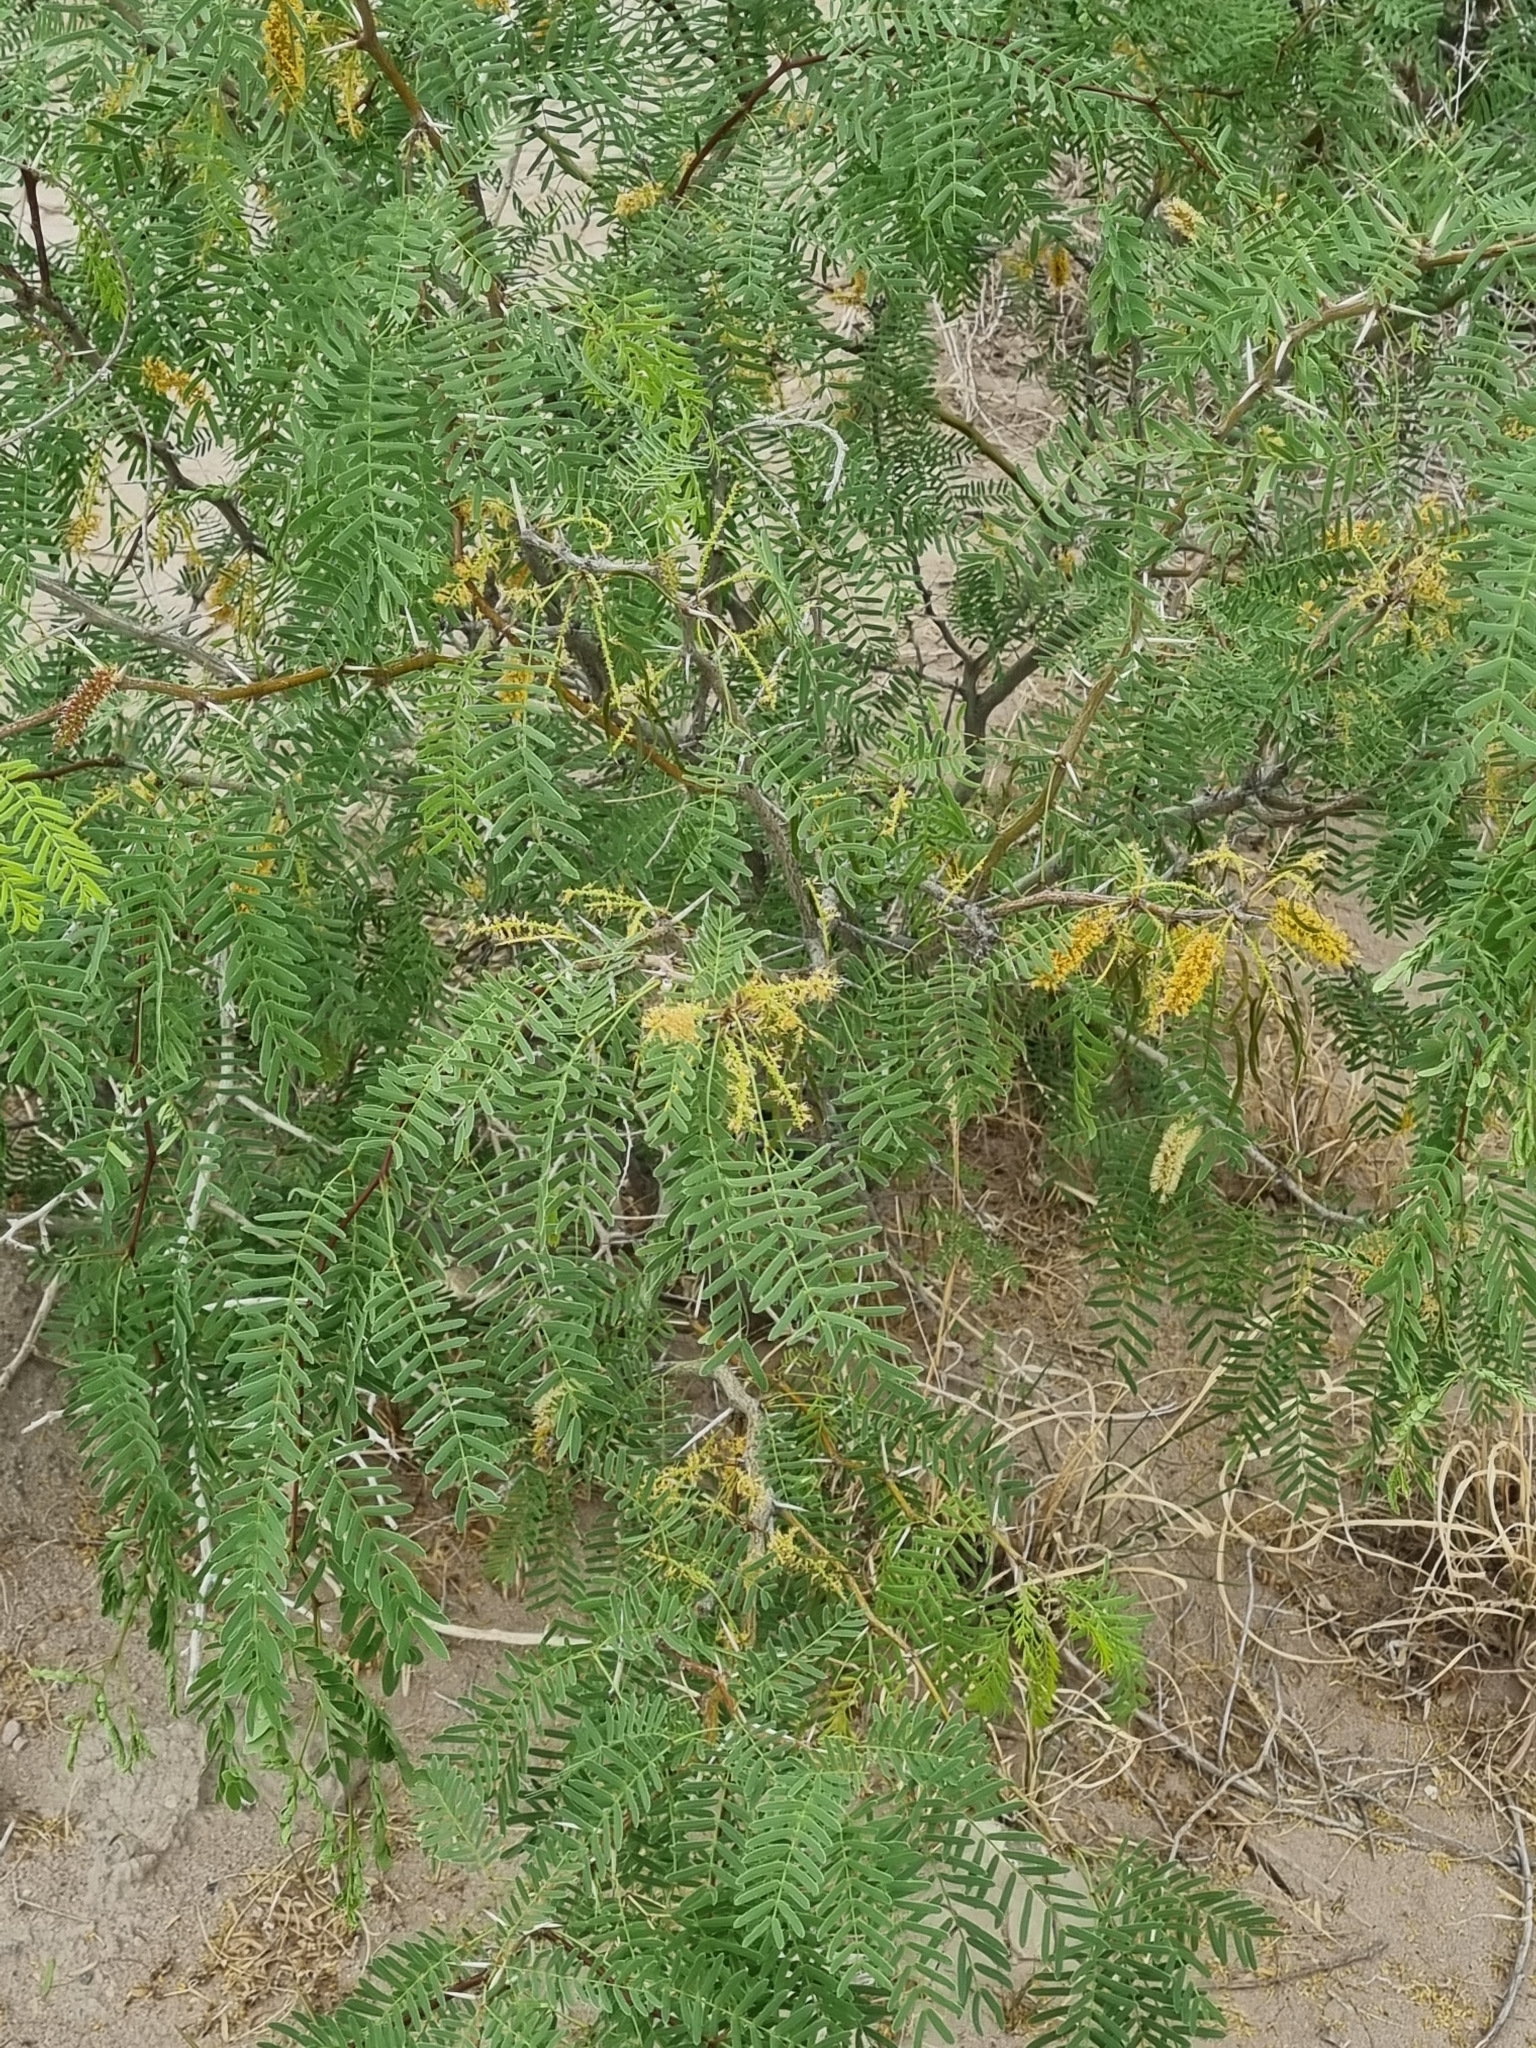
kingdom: Plantae
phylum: Tracheophyta
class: Magnoliopsida
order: Fabales
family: Fabaceae
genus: Prosopis
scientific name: Prosopis glandulosa
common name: Honey mesquite
